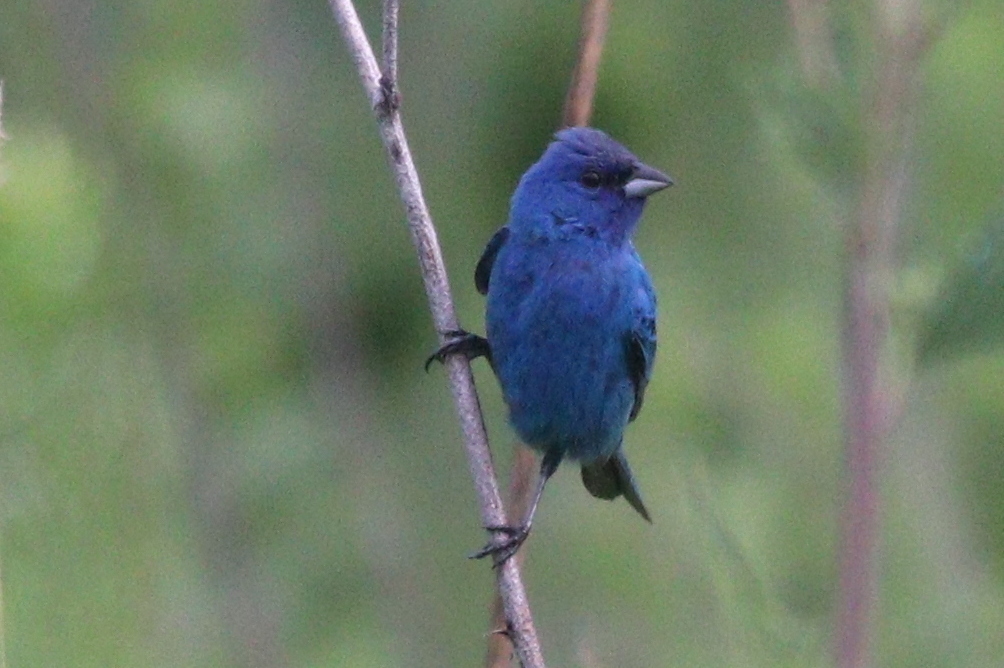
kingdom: Animalia
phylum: Chordata
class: Aves
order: Passeriformes
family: Cardinalidae
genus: Passerina
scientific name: Passerina cyanea
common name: Indigo bunting
